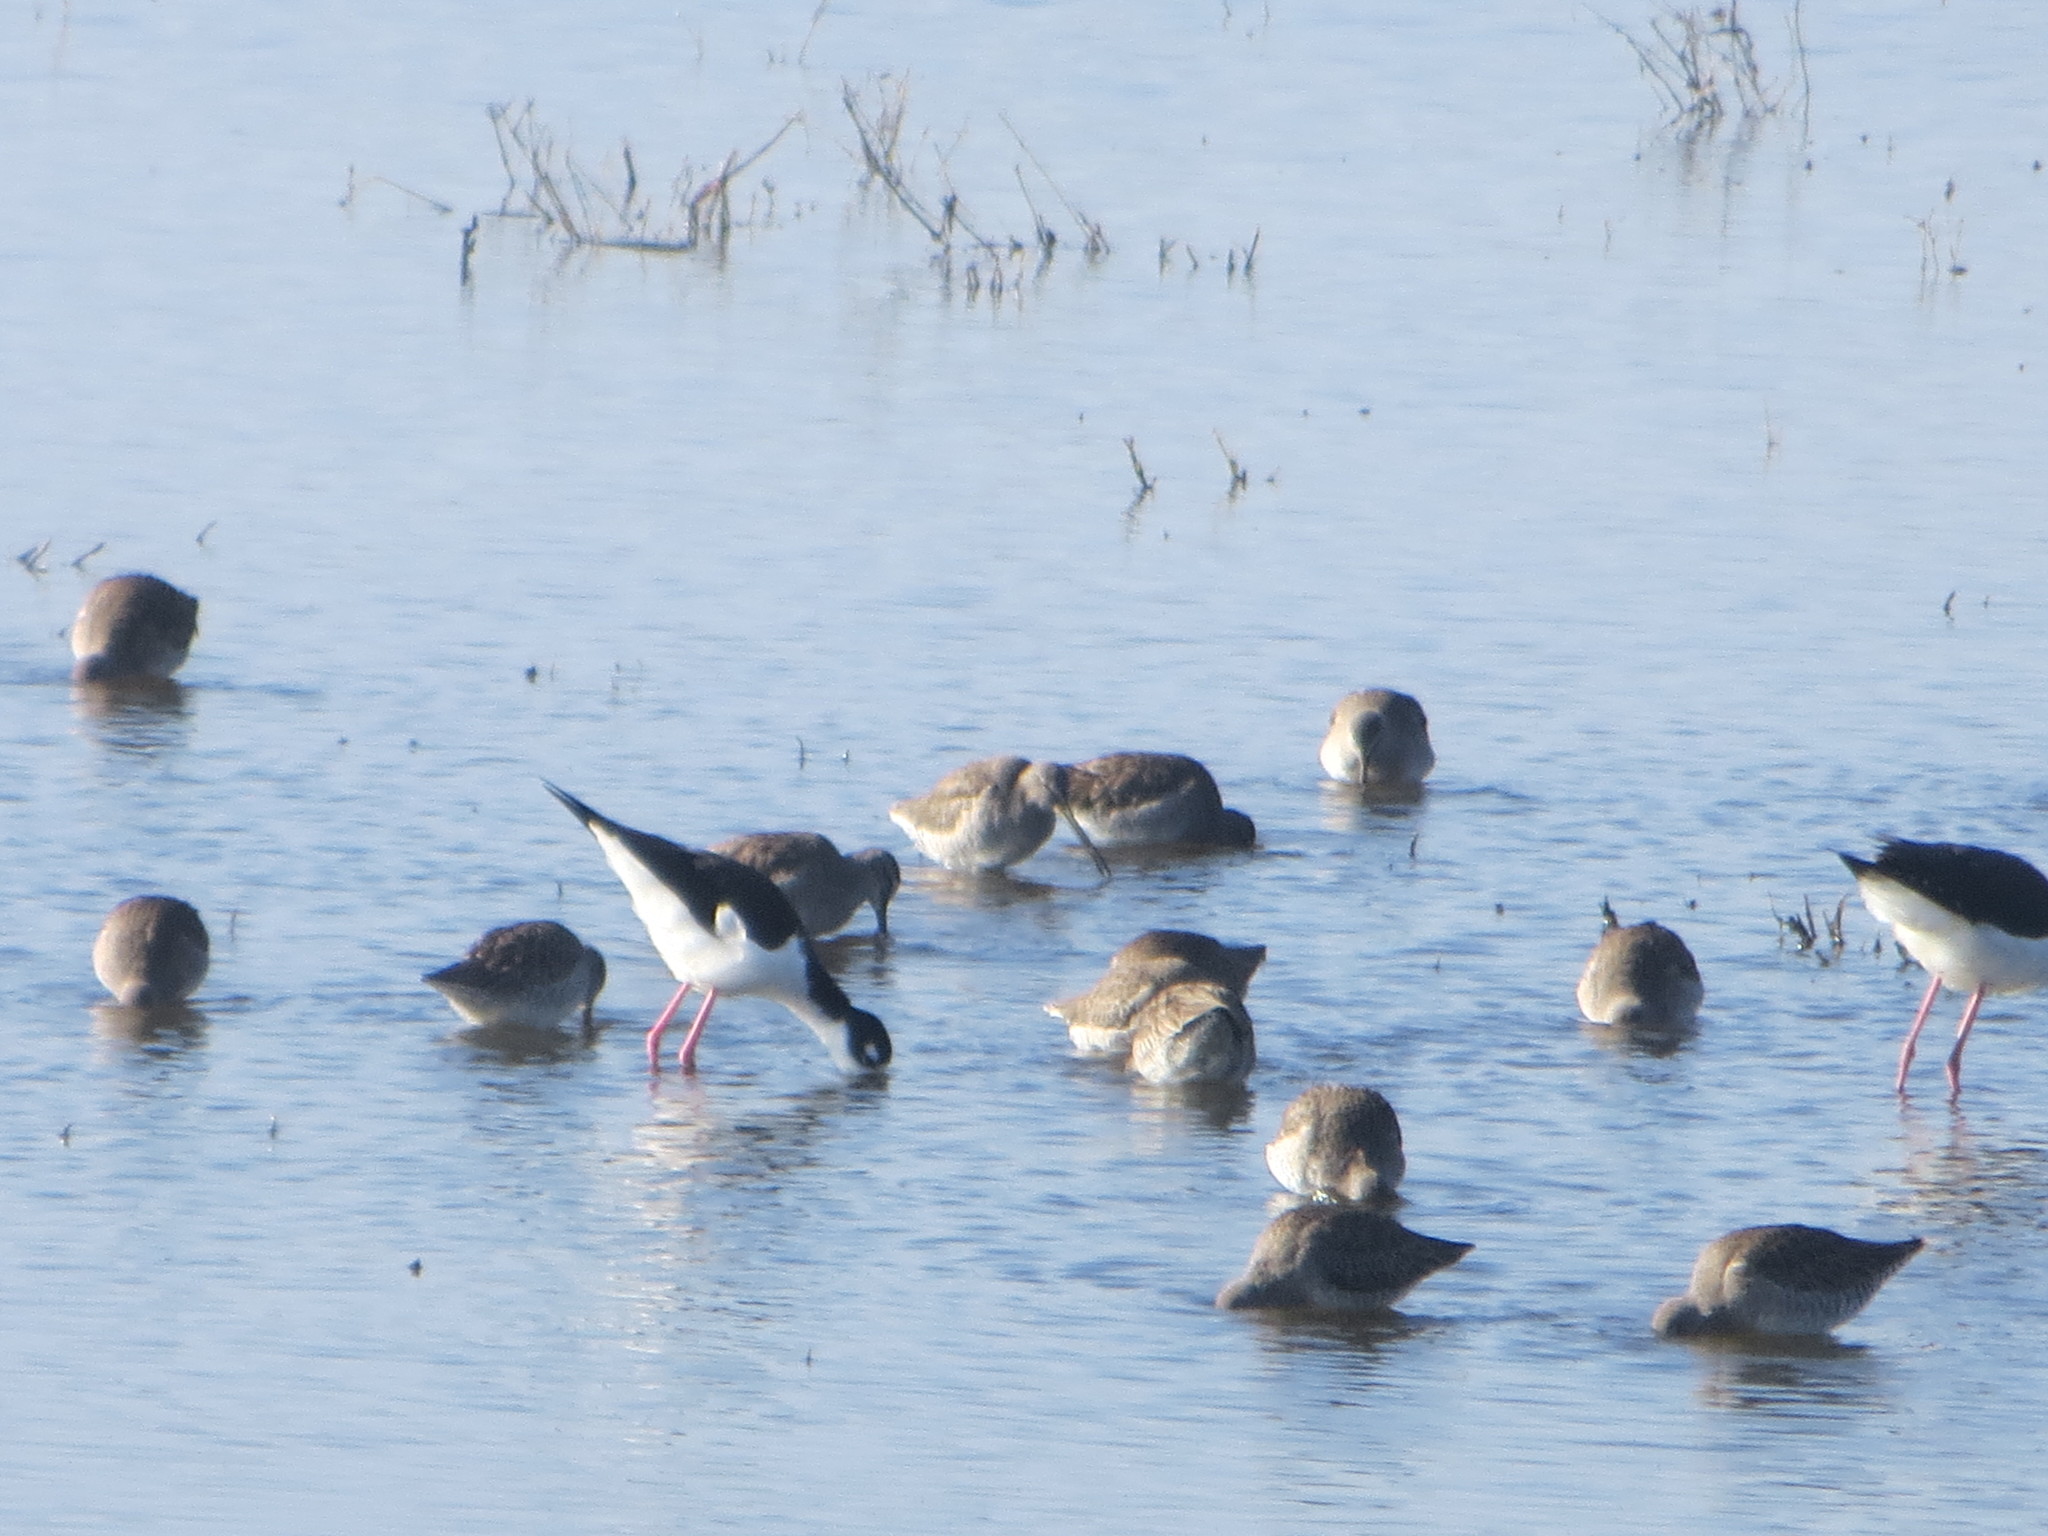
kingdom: Animalia
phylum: Chordata
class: Aves
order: Charadriiformes
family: Recurvirostridae
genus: Himantopus
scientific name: Himantopus mexicanus
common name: Black-necked stilt
